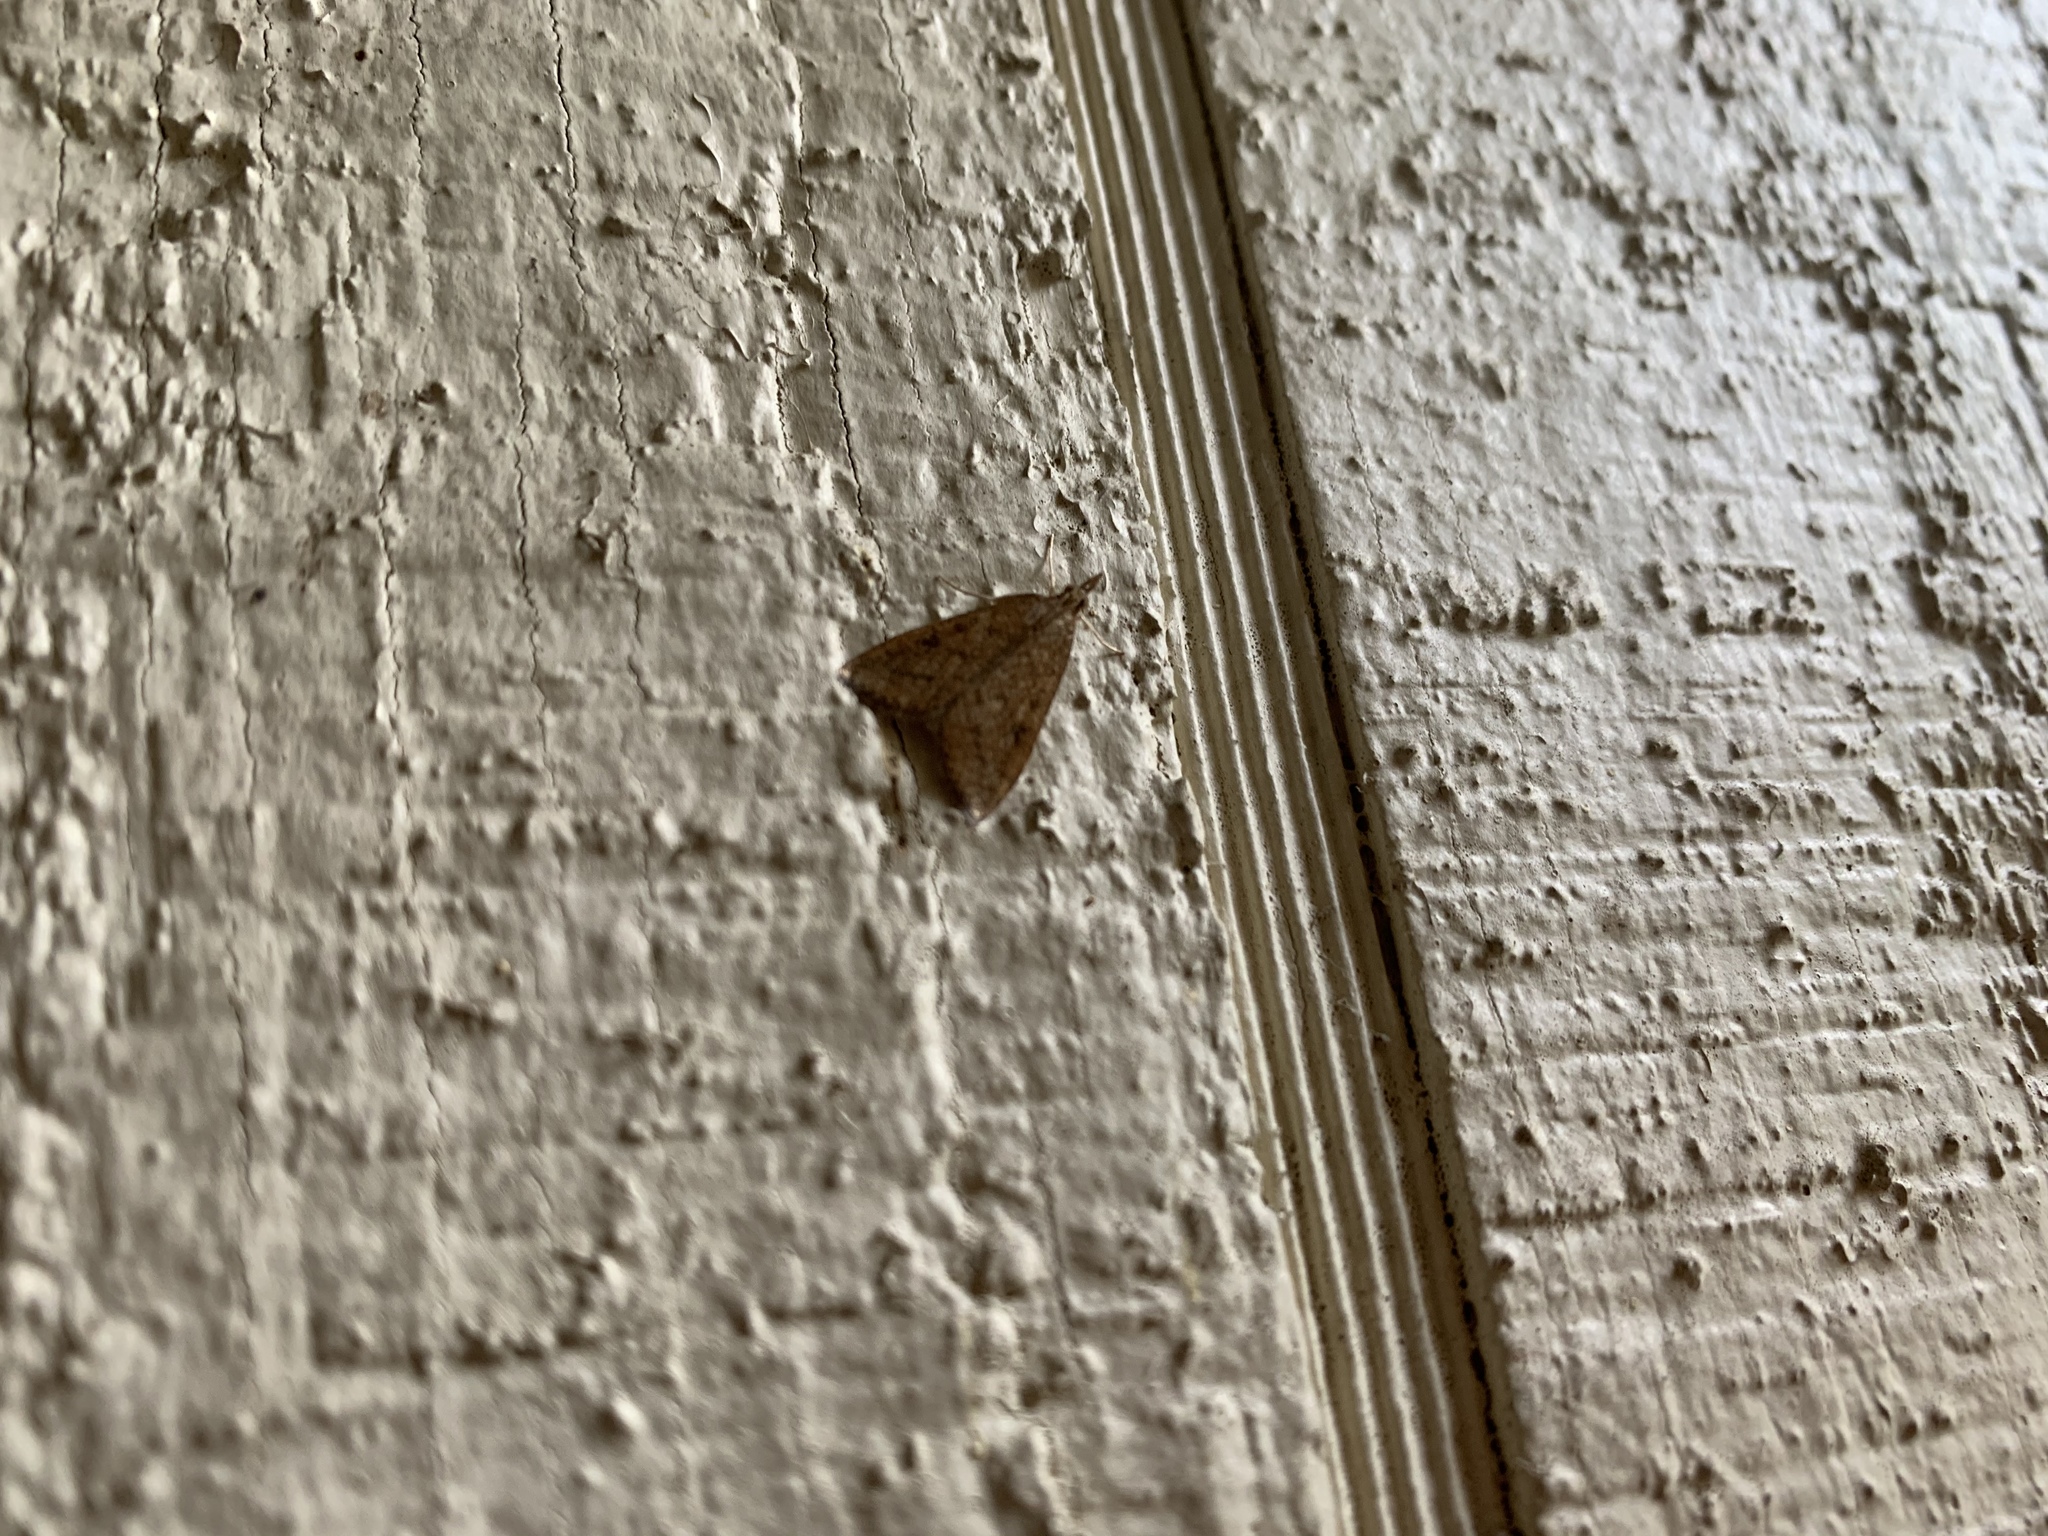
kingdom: Animalia
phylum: Arthropoda
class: Insecta
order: Lepidoptera
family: Crambidae
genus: Udea
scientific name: Udea rubigalis
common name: Celery leaftier moth
